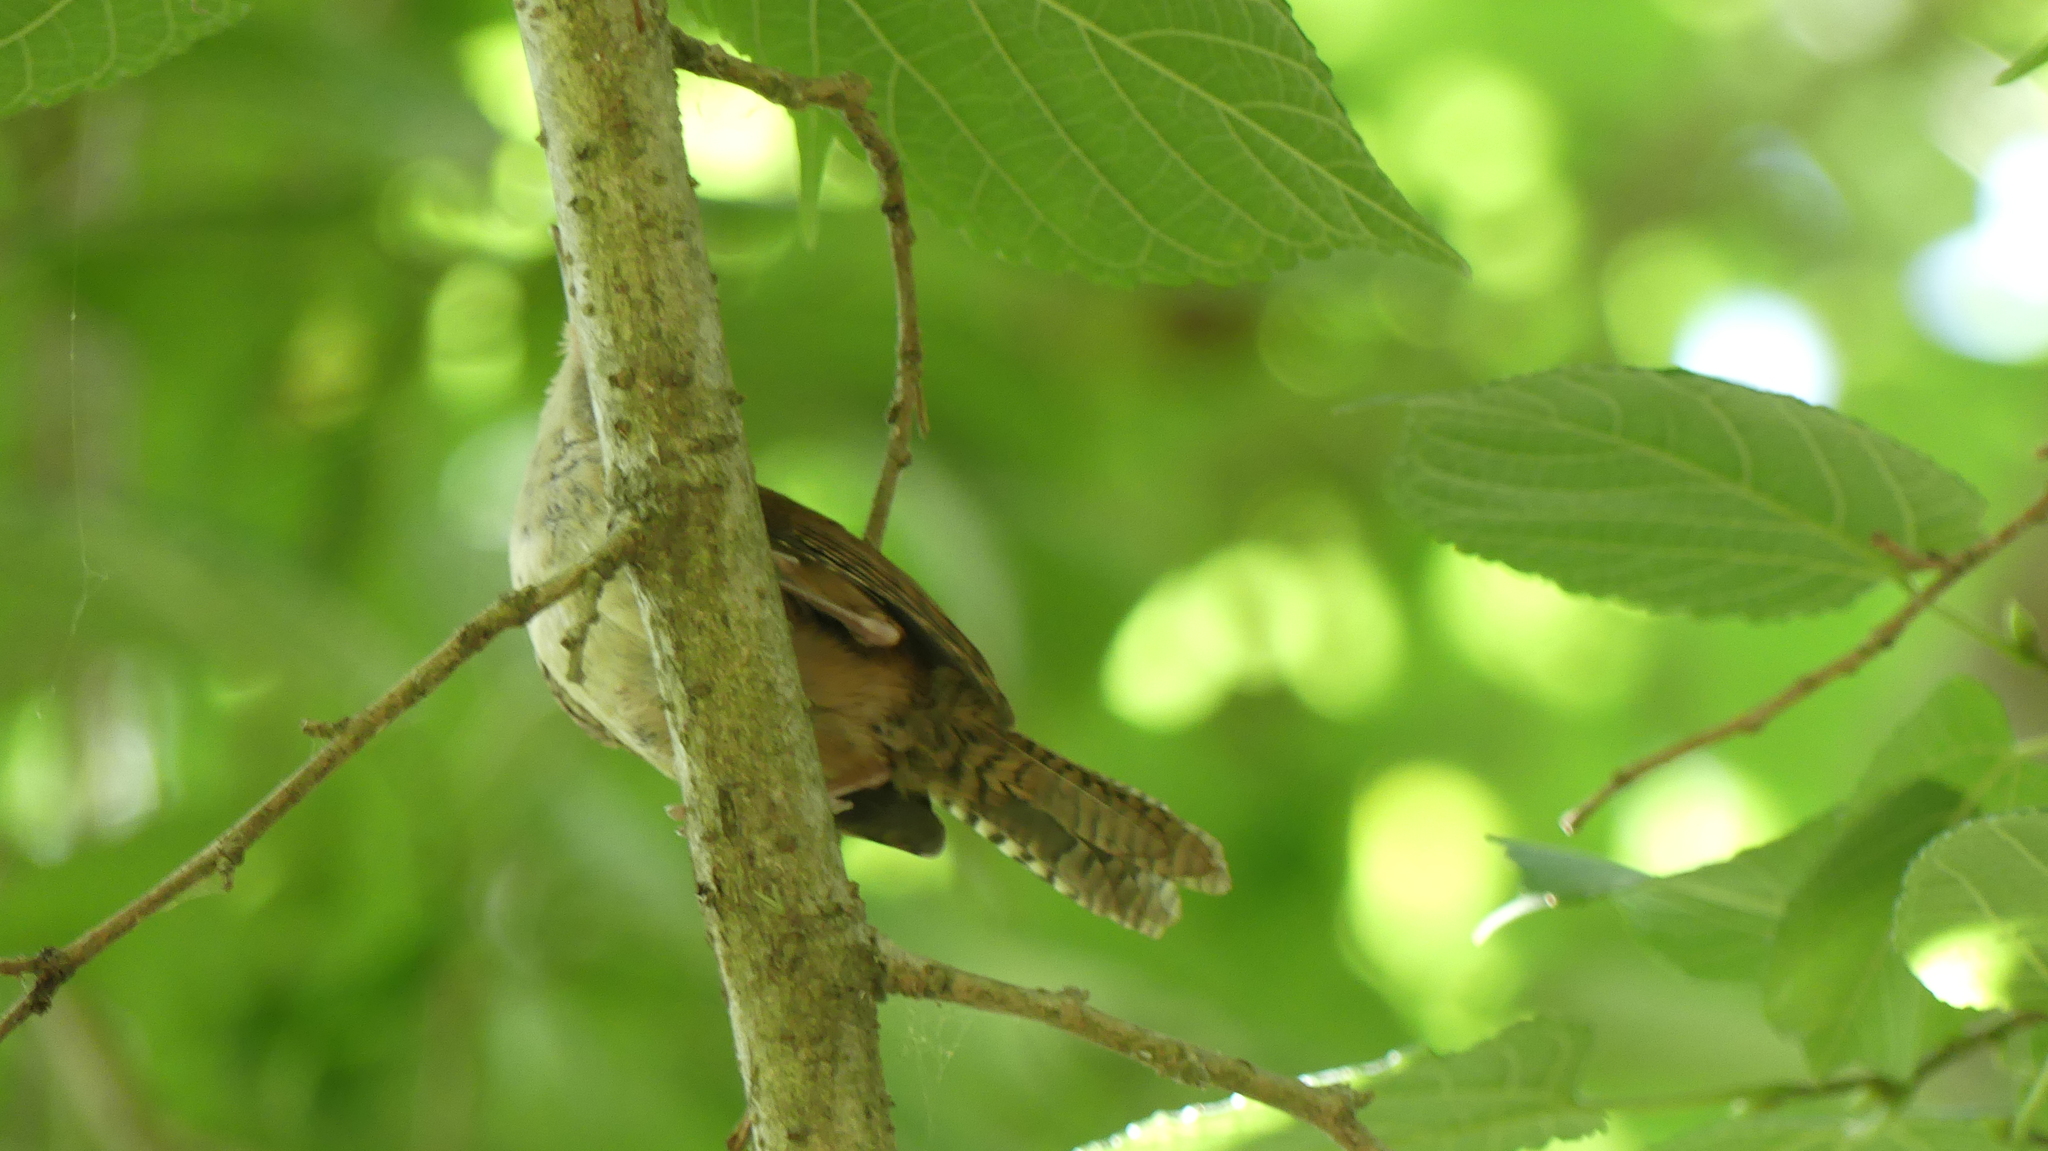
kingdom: Animalia
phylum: Chordata
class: Aves
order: Passeriformes
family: Troglodytidae
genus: Thryothorus
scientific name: Thryothorus ludovicianus
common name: Carolina wren
